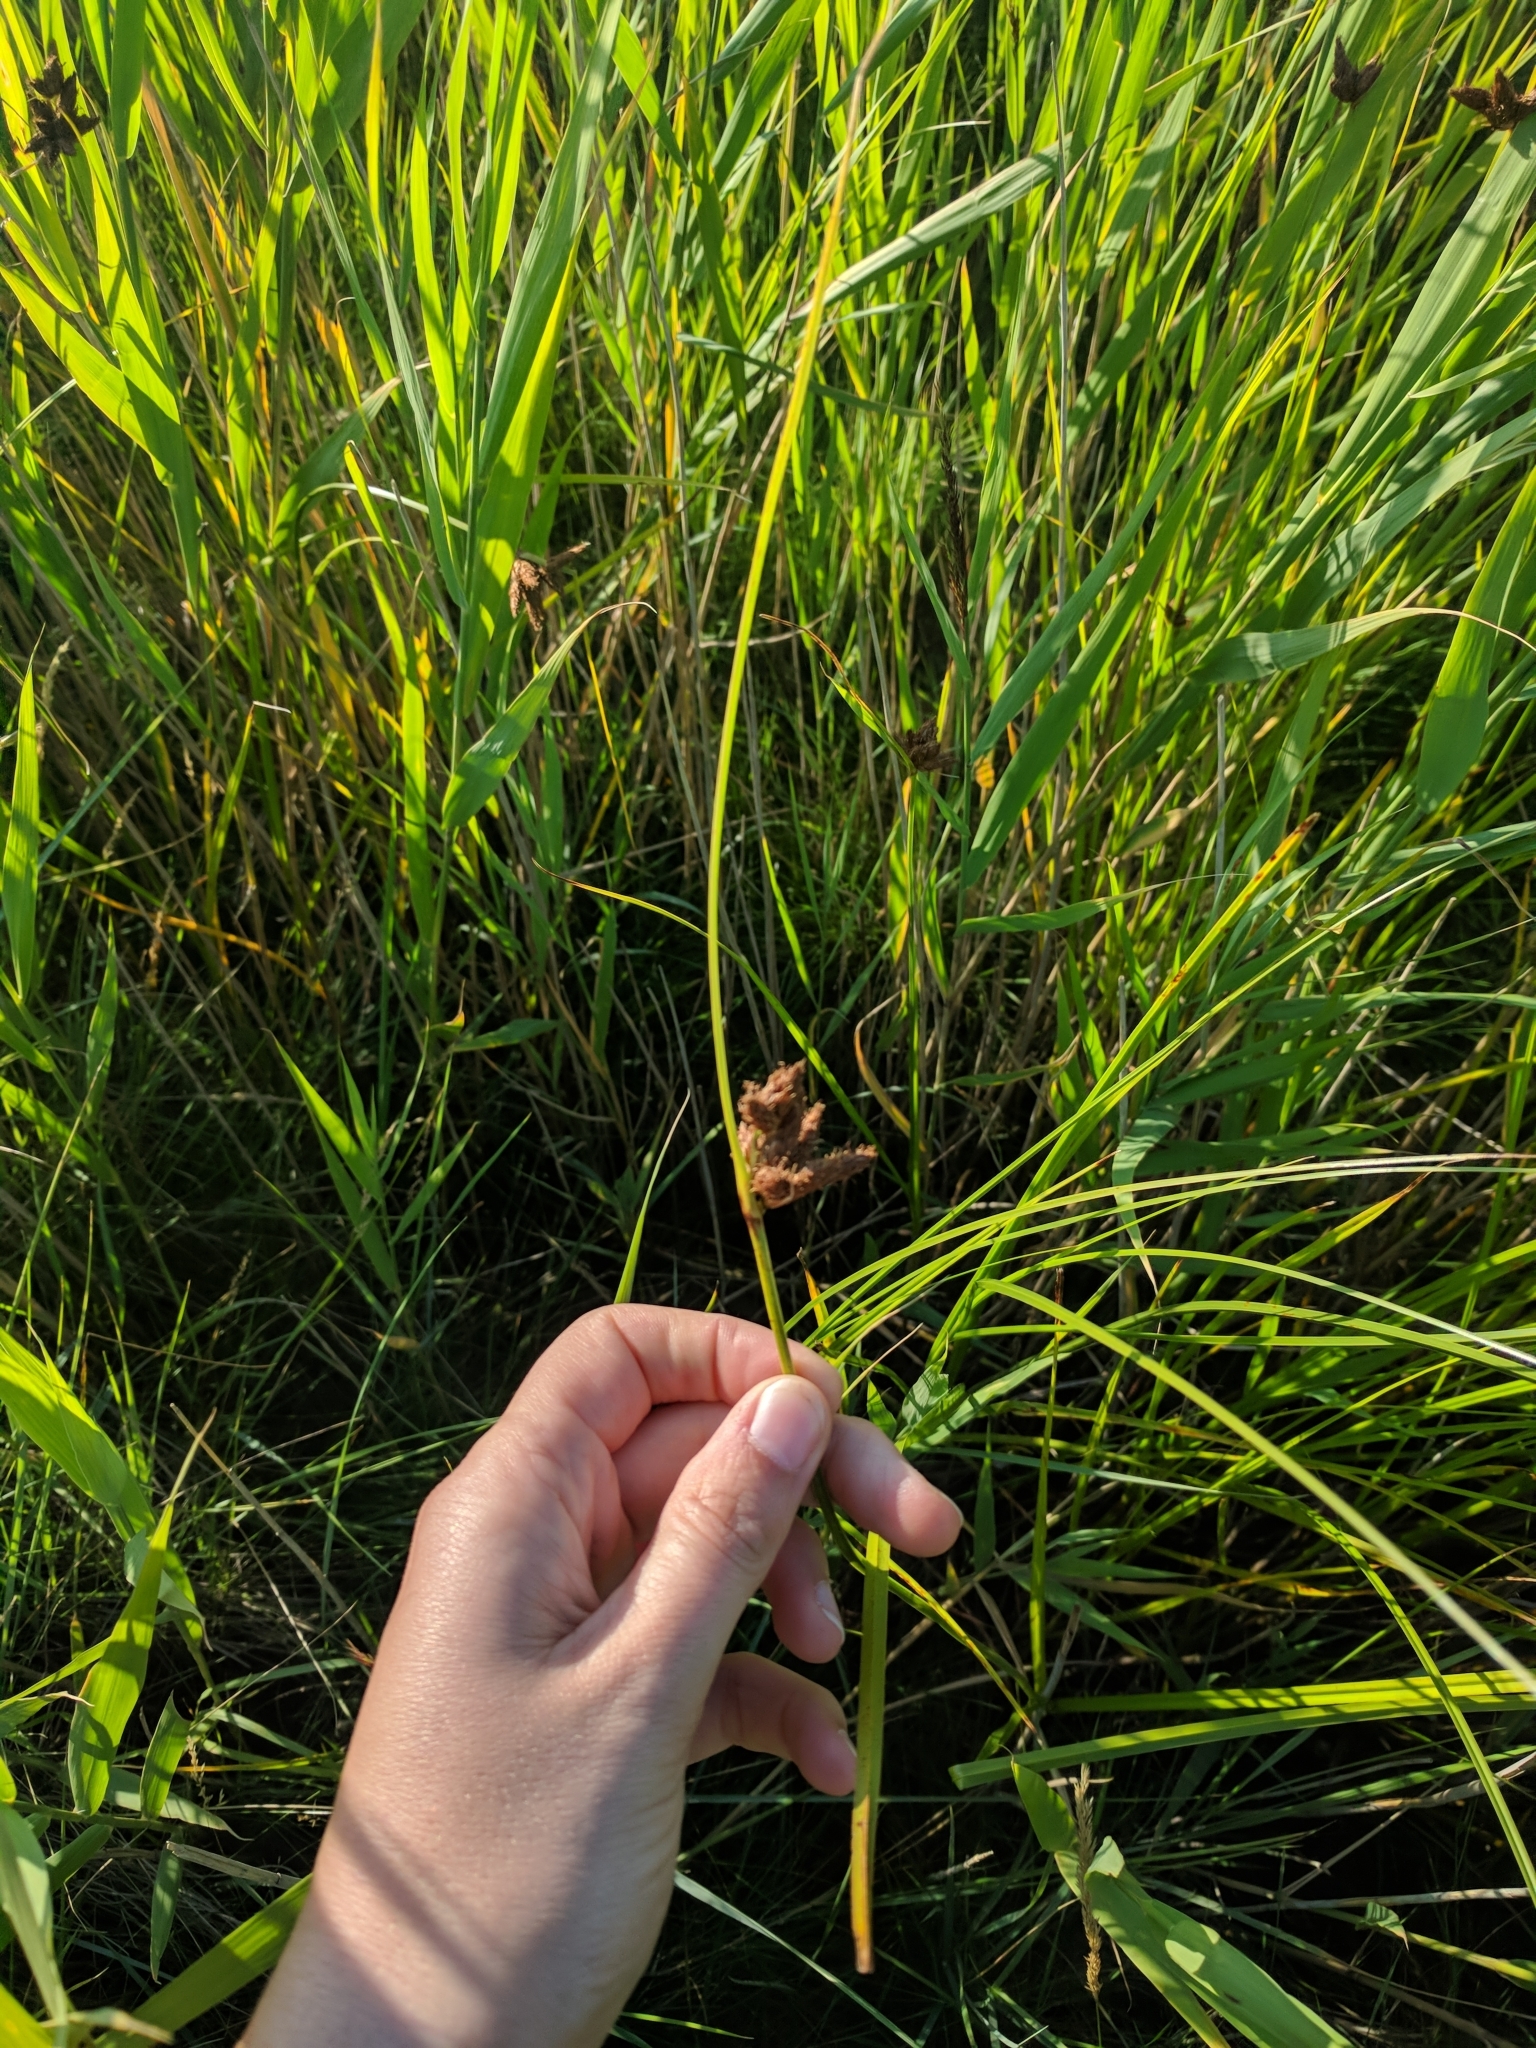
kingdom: Plantae
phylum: Tracheophyta
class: Liliopsida
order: Poales
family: Cyperaceae
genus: Schoenoplectus
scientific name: Schoenoplectus lacustris
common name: Common club-rush
